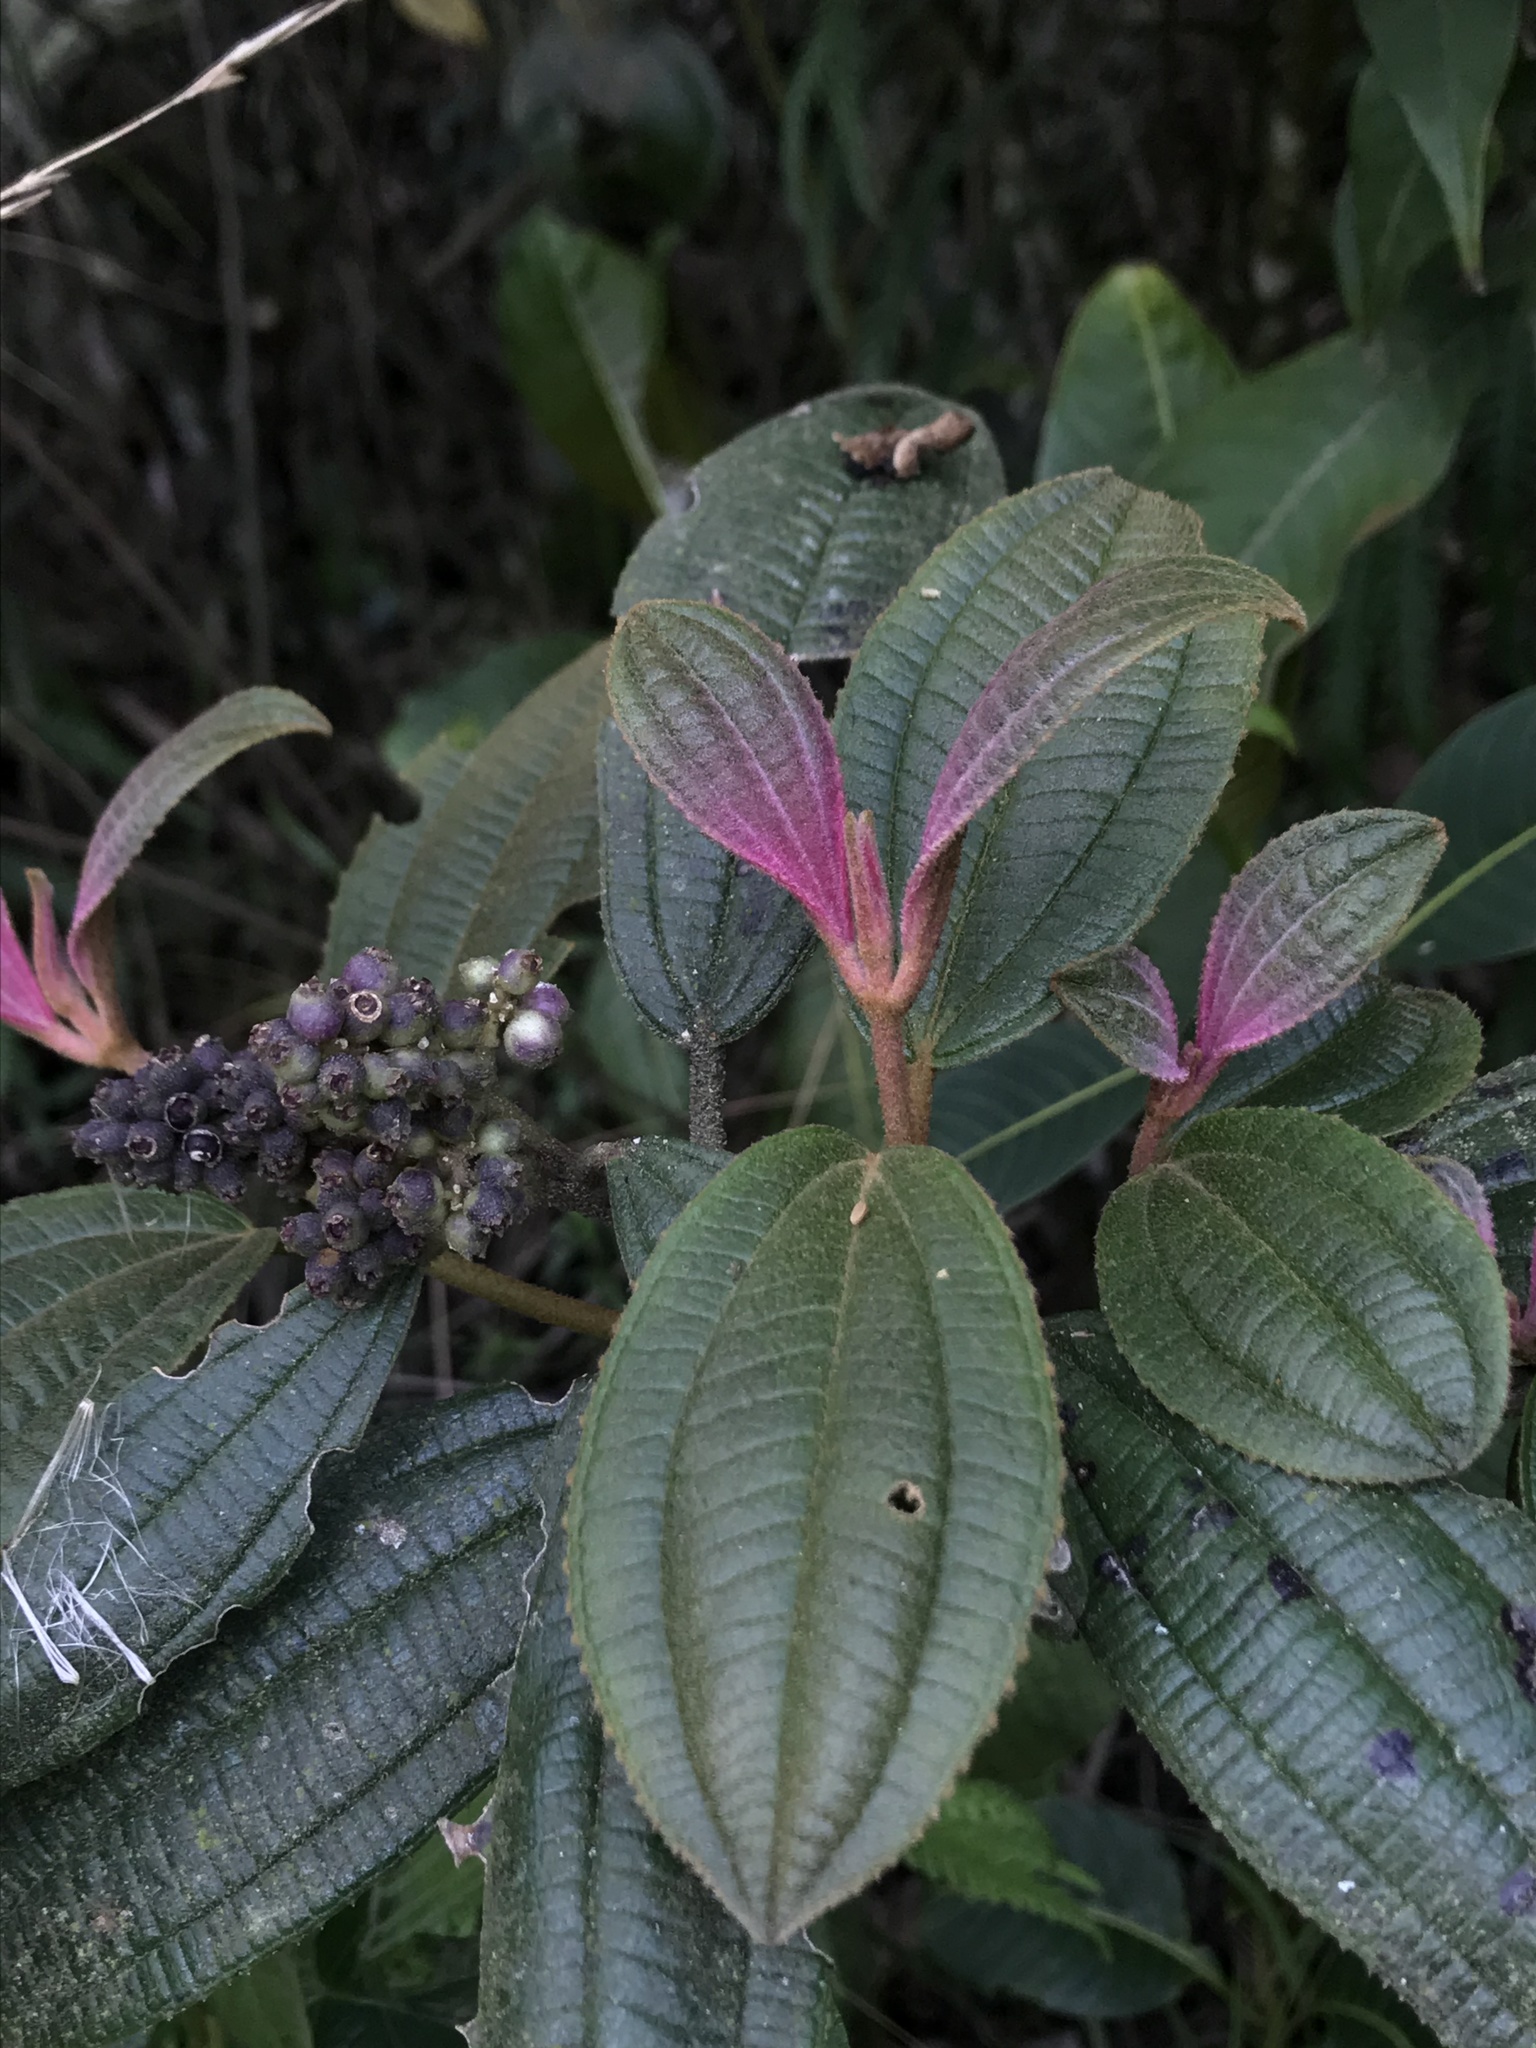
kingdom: Plantae
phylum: Tracheophyta
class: Magnoliopsida
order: Myrtales
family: Melastomataceae
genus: Miconia
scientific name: Miconia cataractae
